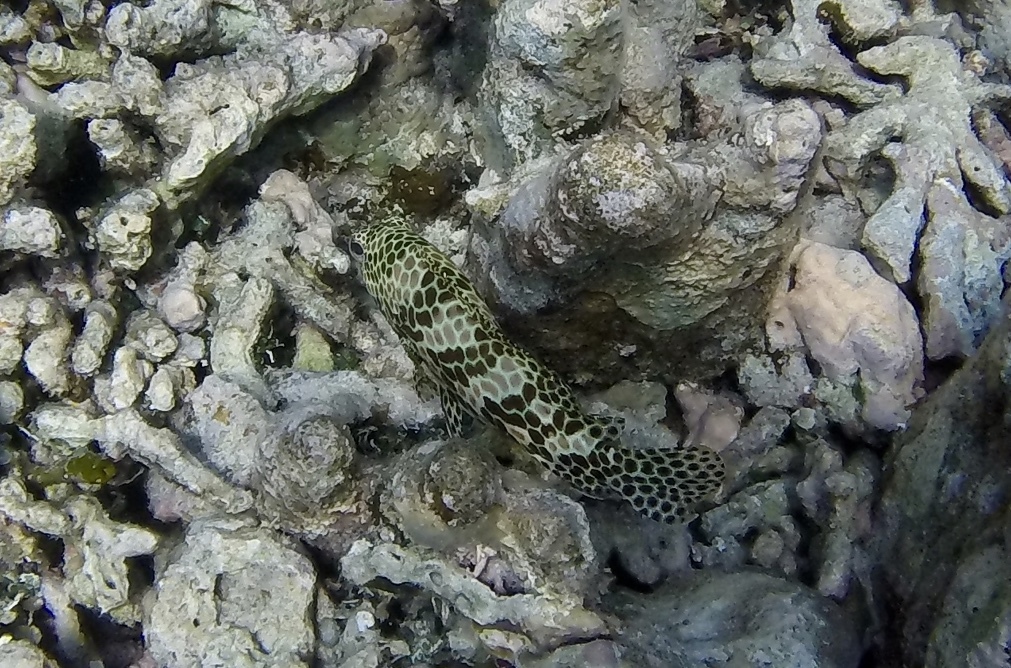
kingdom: Animalia
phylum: Chordata
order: Perciformes
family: Serranidae
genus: Epinephelus
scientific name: Epinephelus merra
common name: Honeycomb grouper
